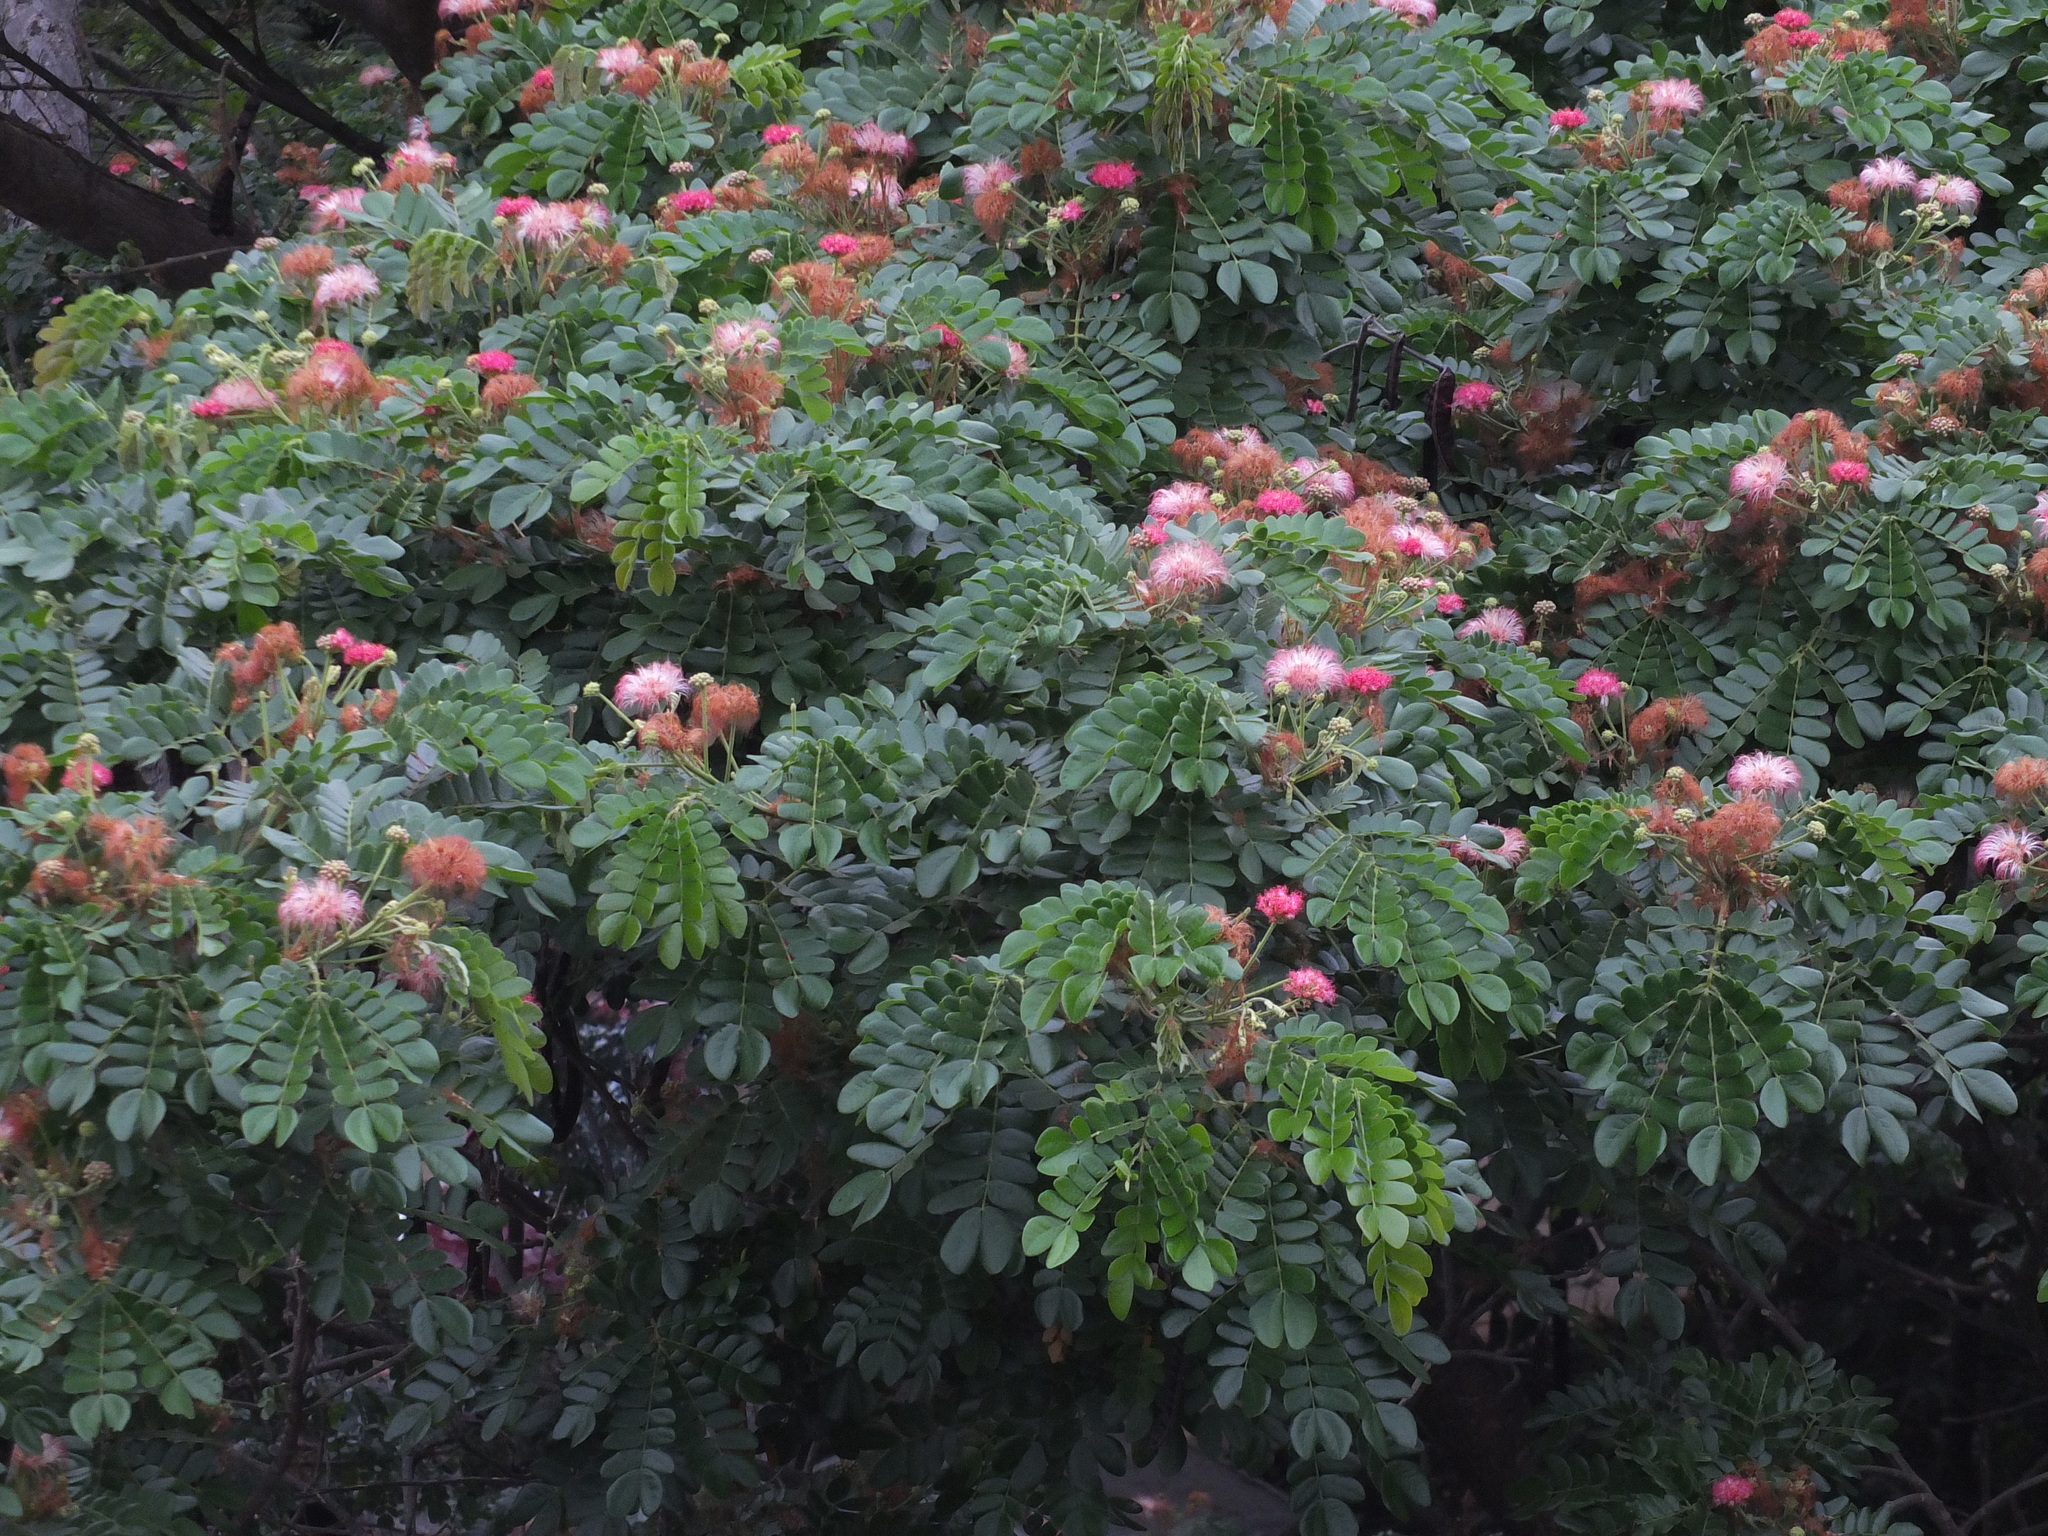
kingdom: Plantae
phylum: Tracheophyta
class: Magnoliopsida
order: Fabales
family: Fabaceae
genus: Samanea
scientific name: Samanea saman
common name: Raintree
